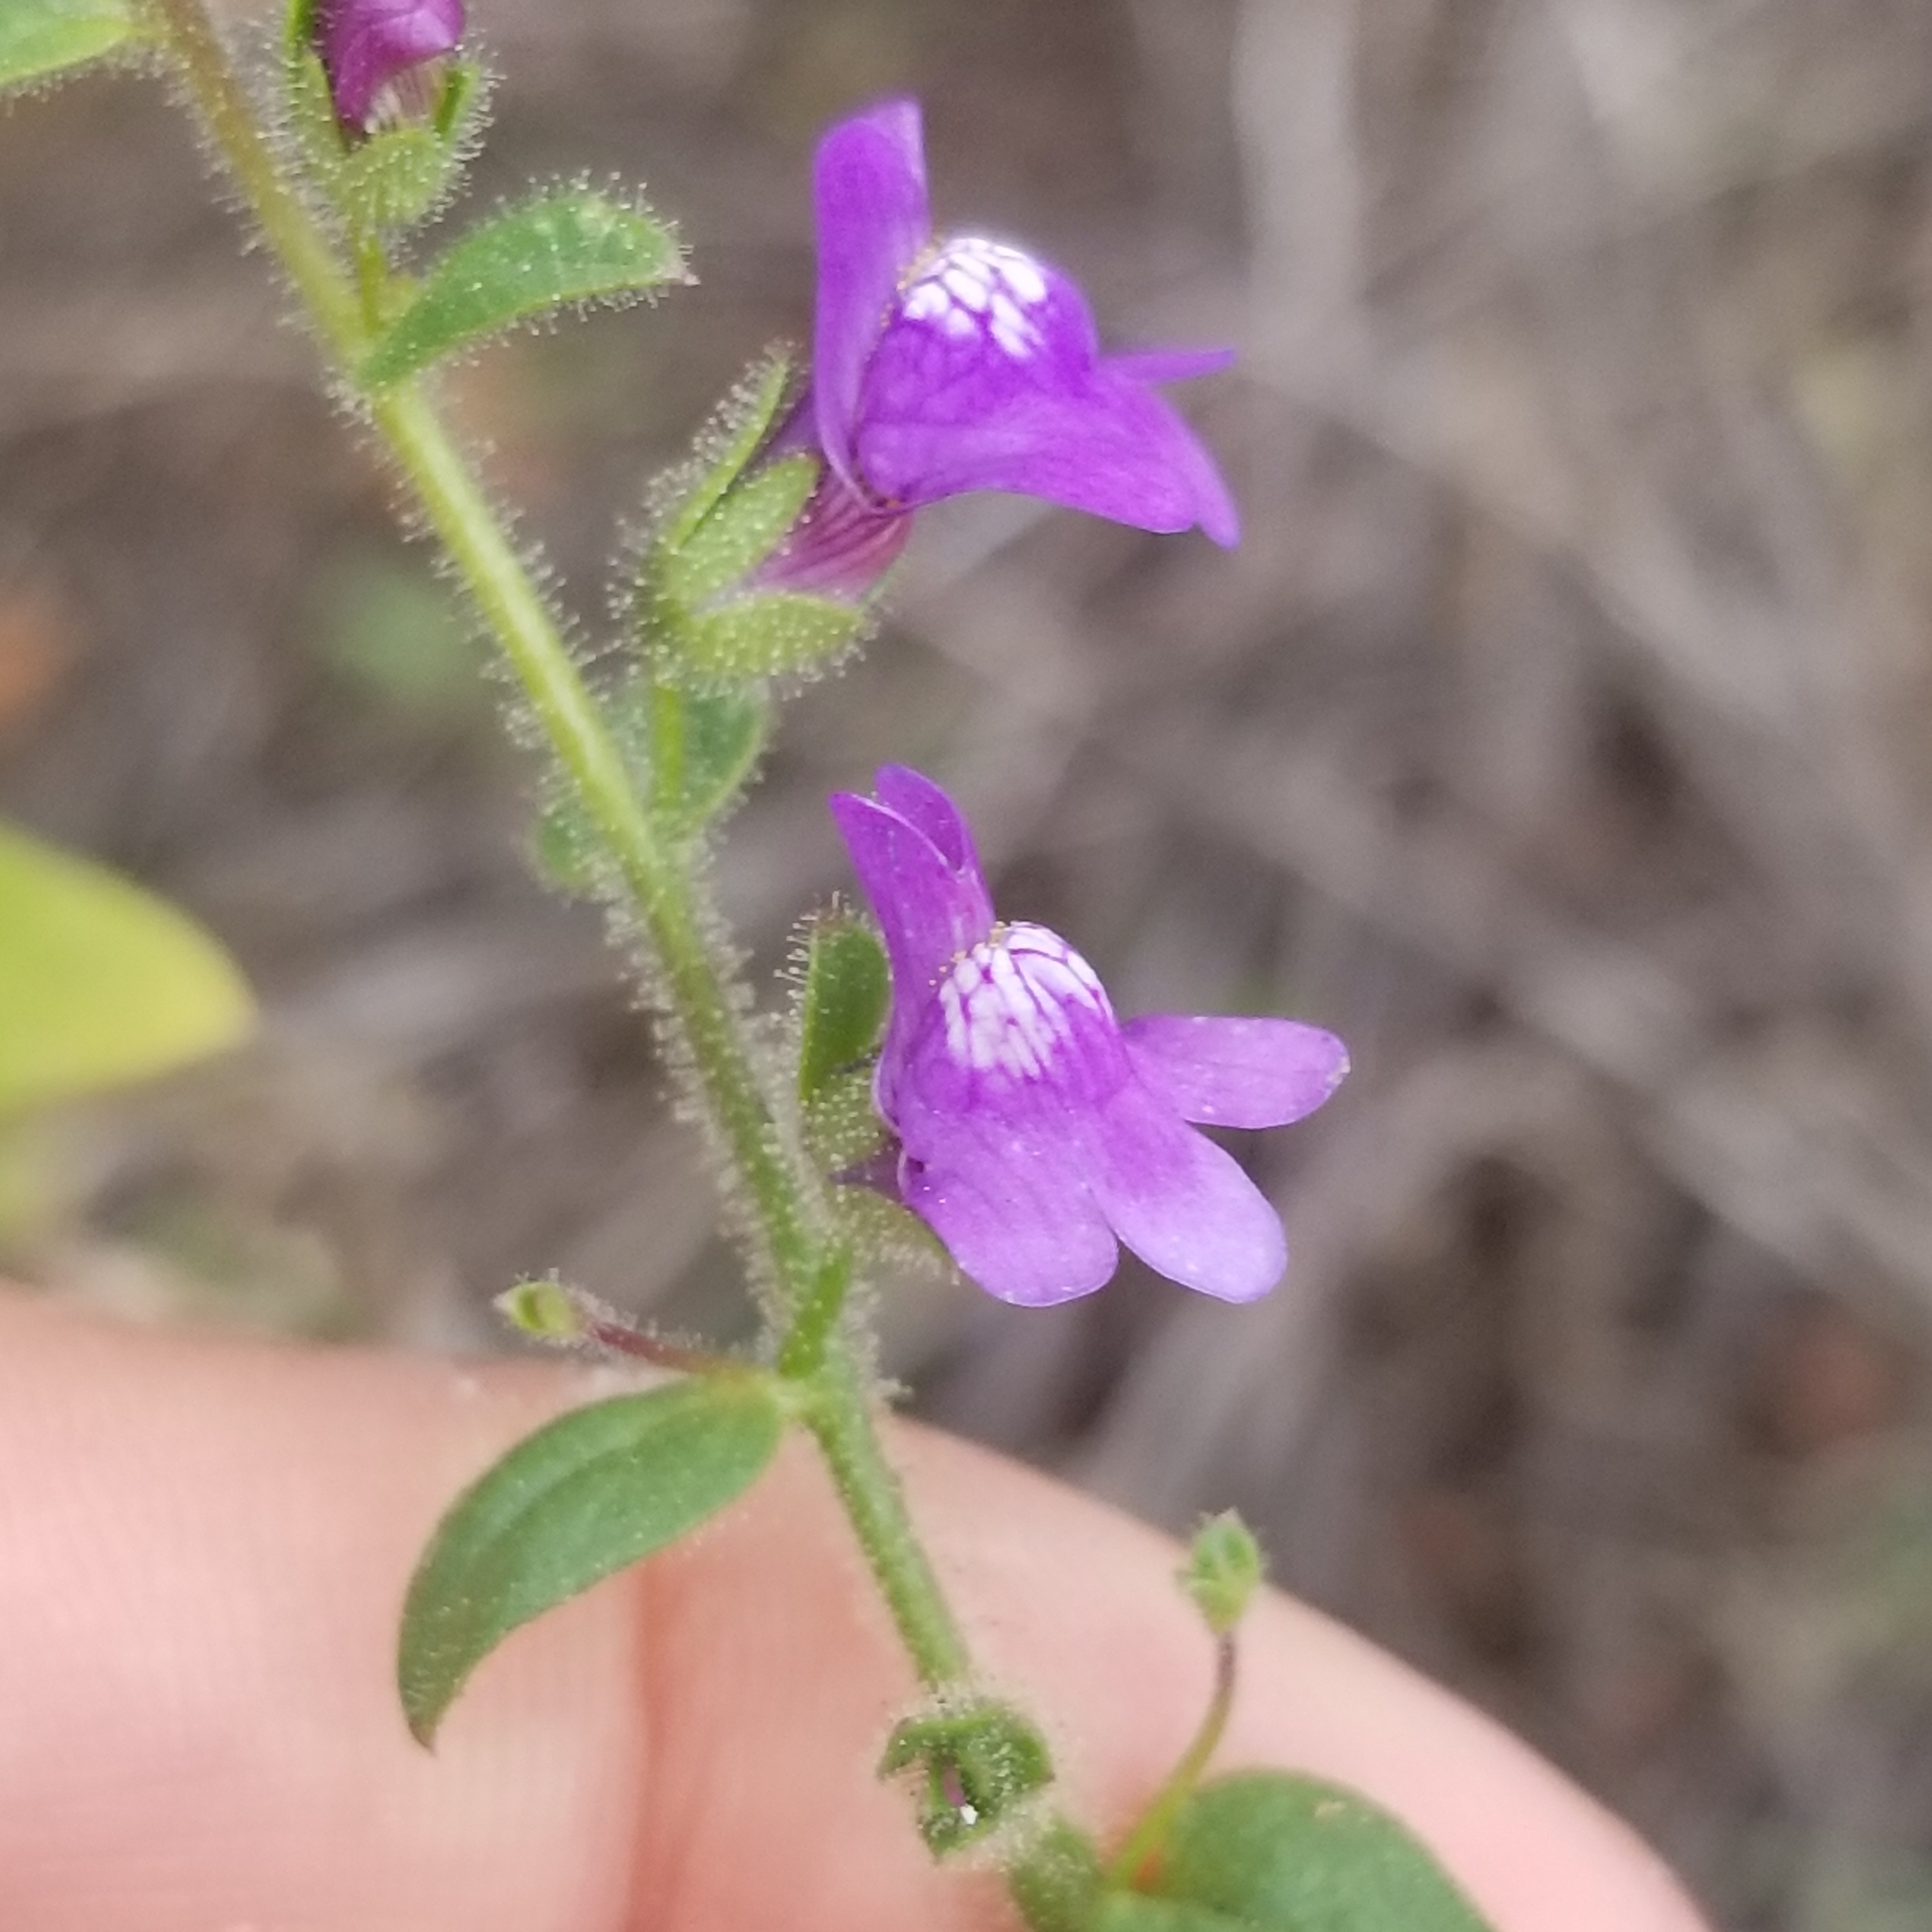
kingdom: Plantae
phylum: Tracheophyta
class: Magnoliopsida
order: Lamiales
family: Plantaginaceae
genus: Sairocarpus
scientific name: Sairocarpus nuttallianus
